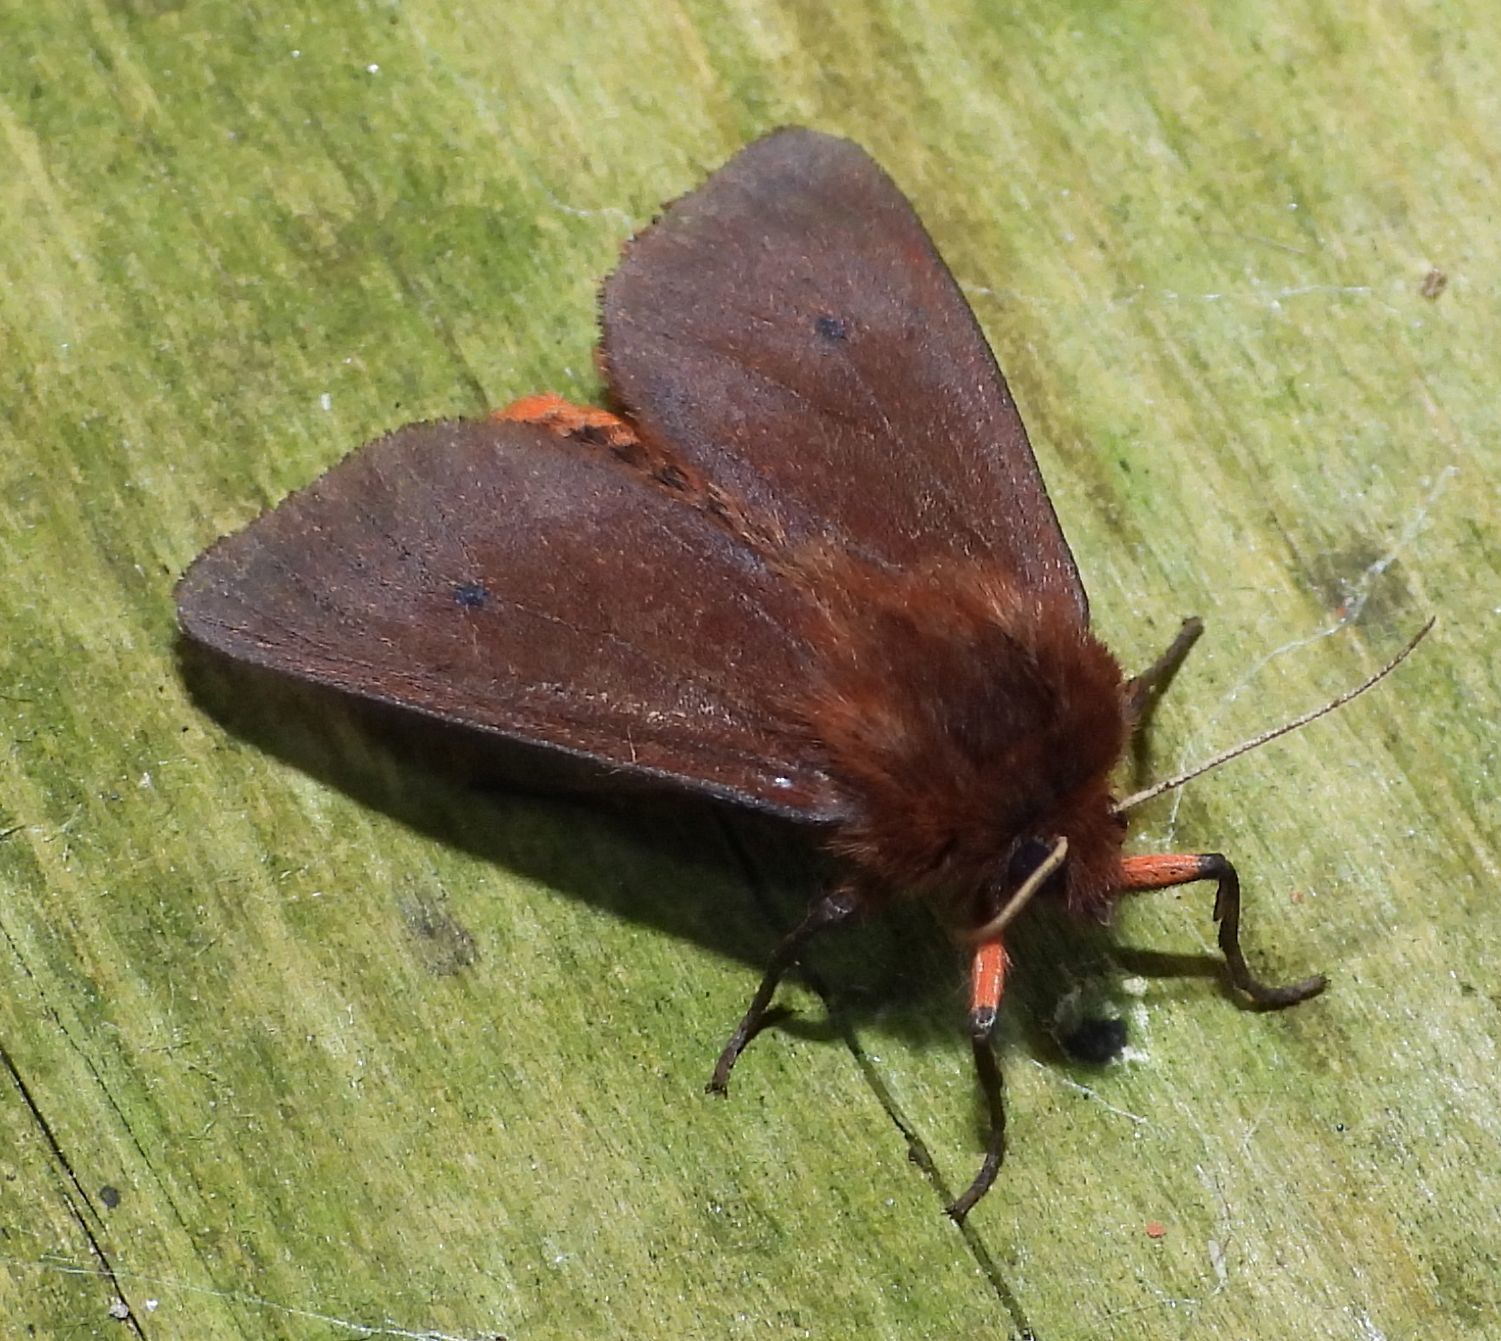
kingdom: Animalia
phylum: Arthropoda
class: Insecta
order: Lepidoptera
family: Erebidae
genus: Phragmatobia
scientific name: Phragmatobia fuliginosa
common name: Ruby tiger
